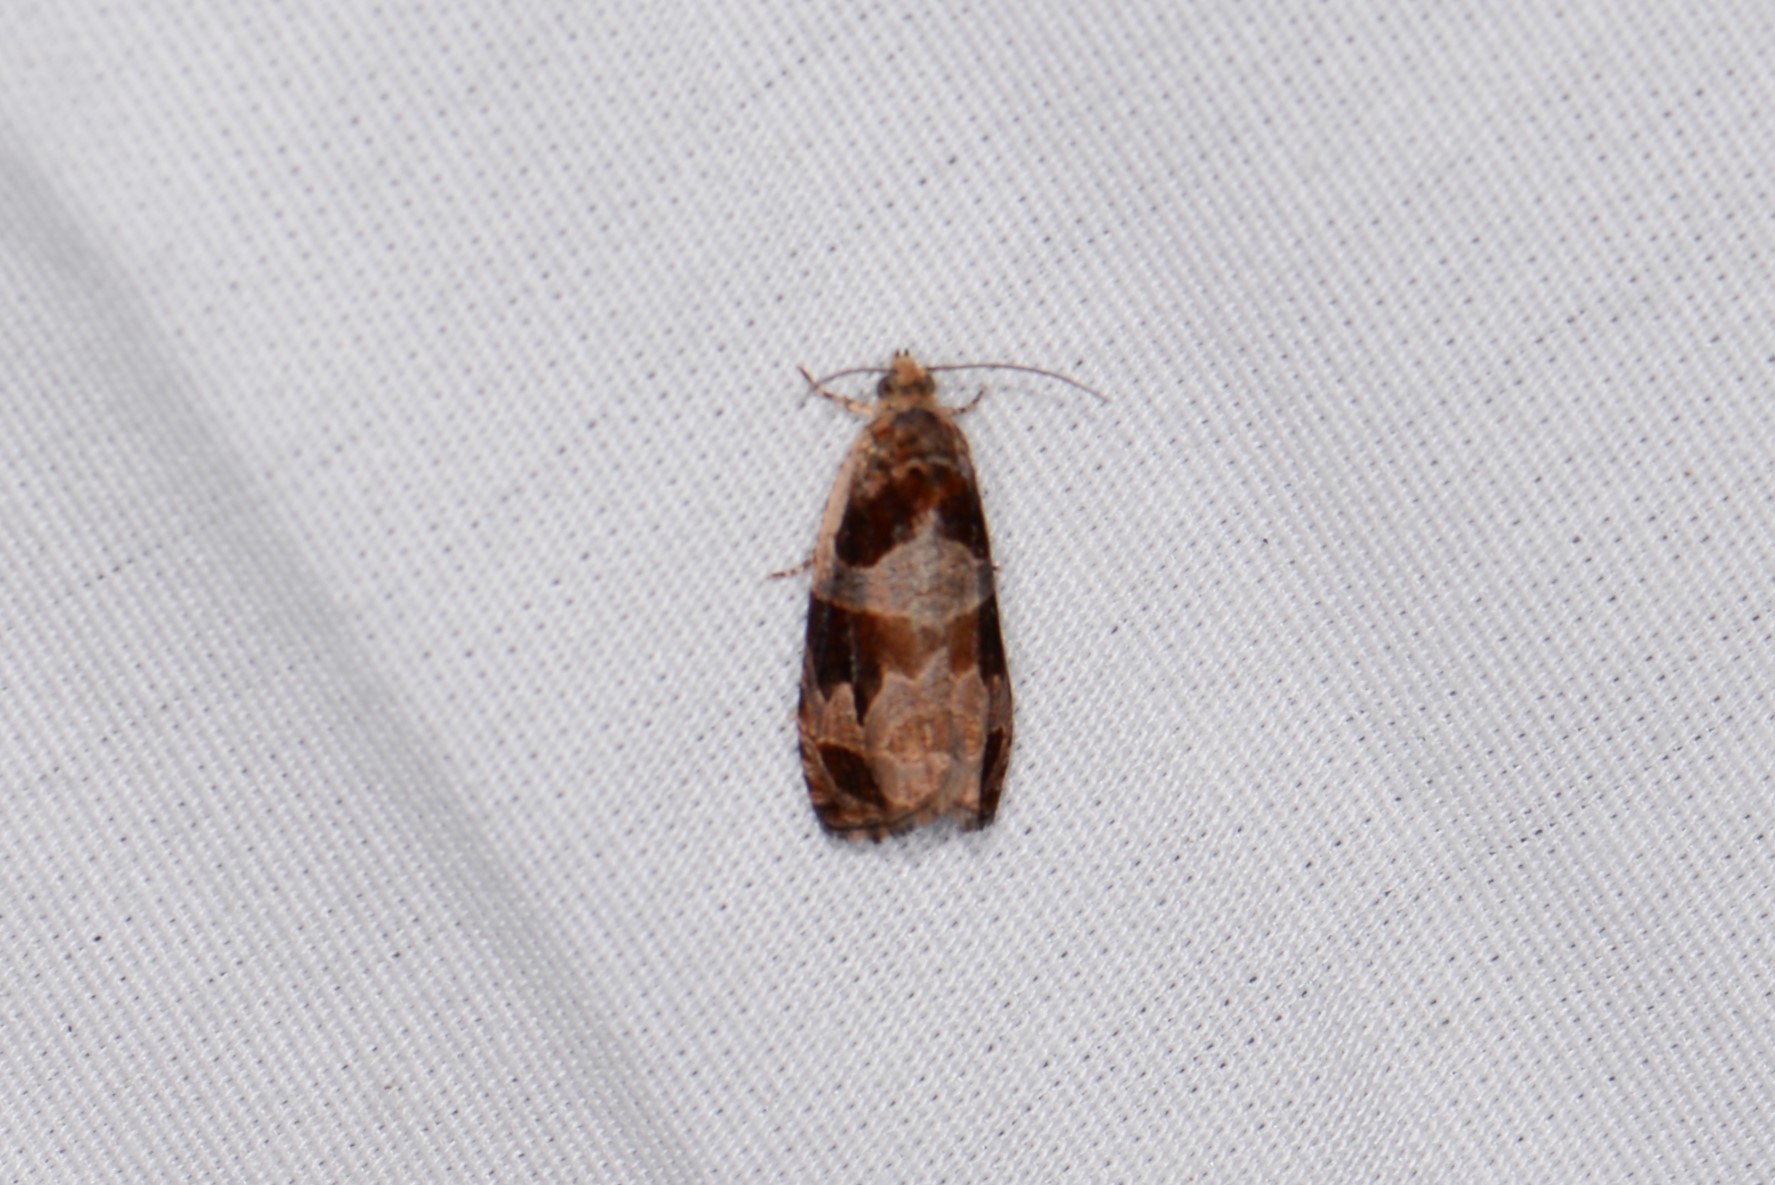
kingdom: Animalia
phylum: Arthropoda
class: Insecta
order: Lepidoptera
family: Tortricidae
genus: Olethreutes
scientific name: Olethreutes footiana
